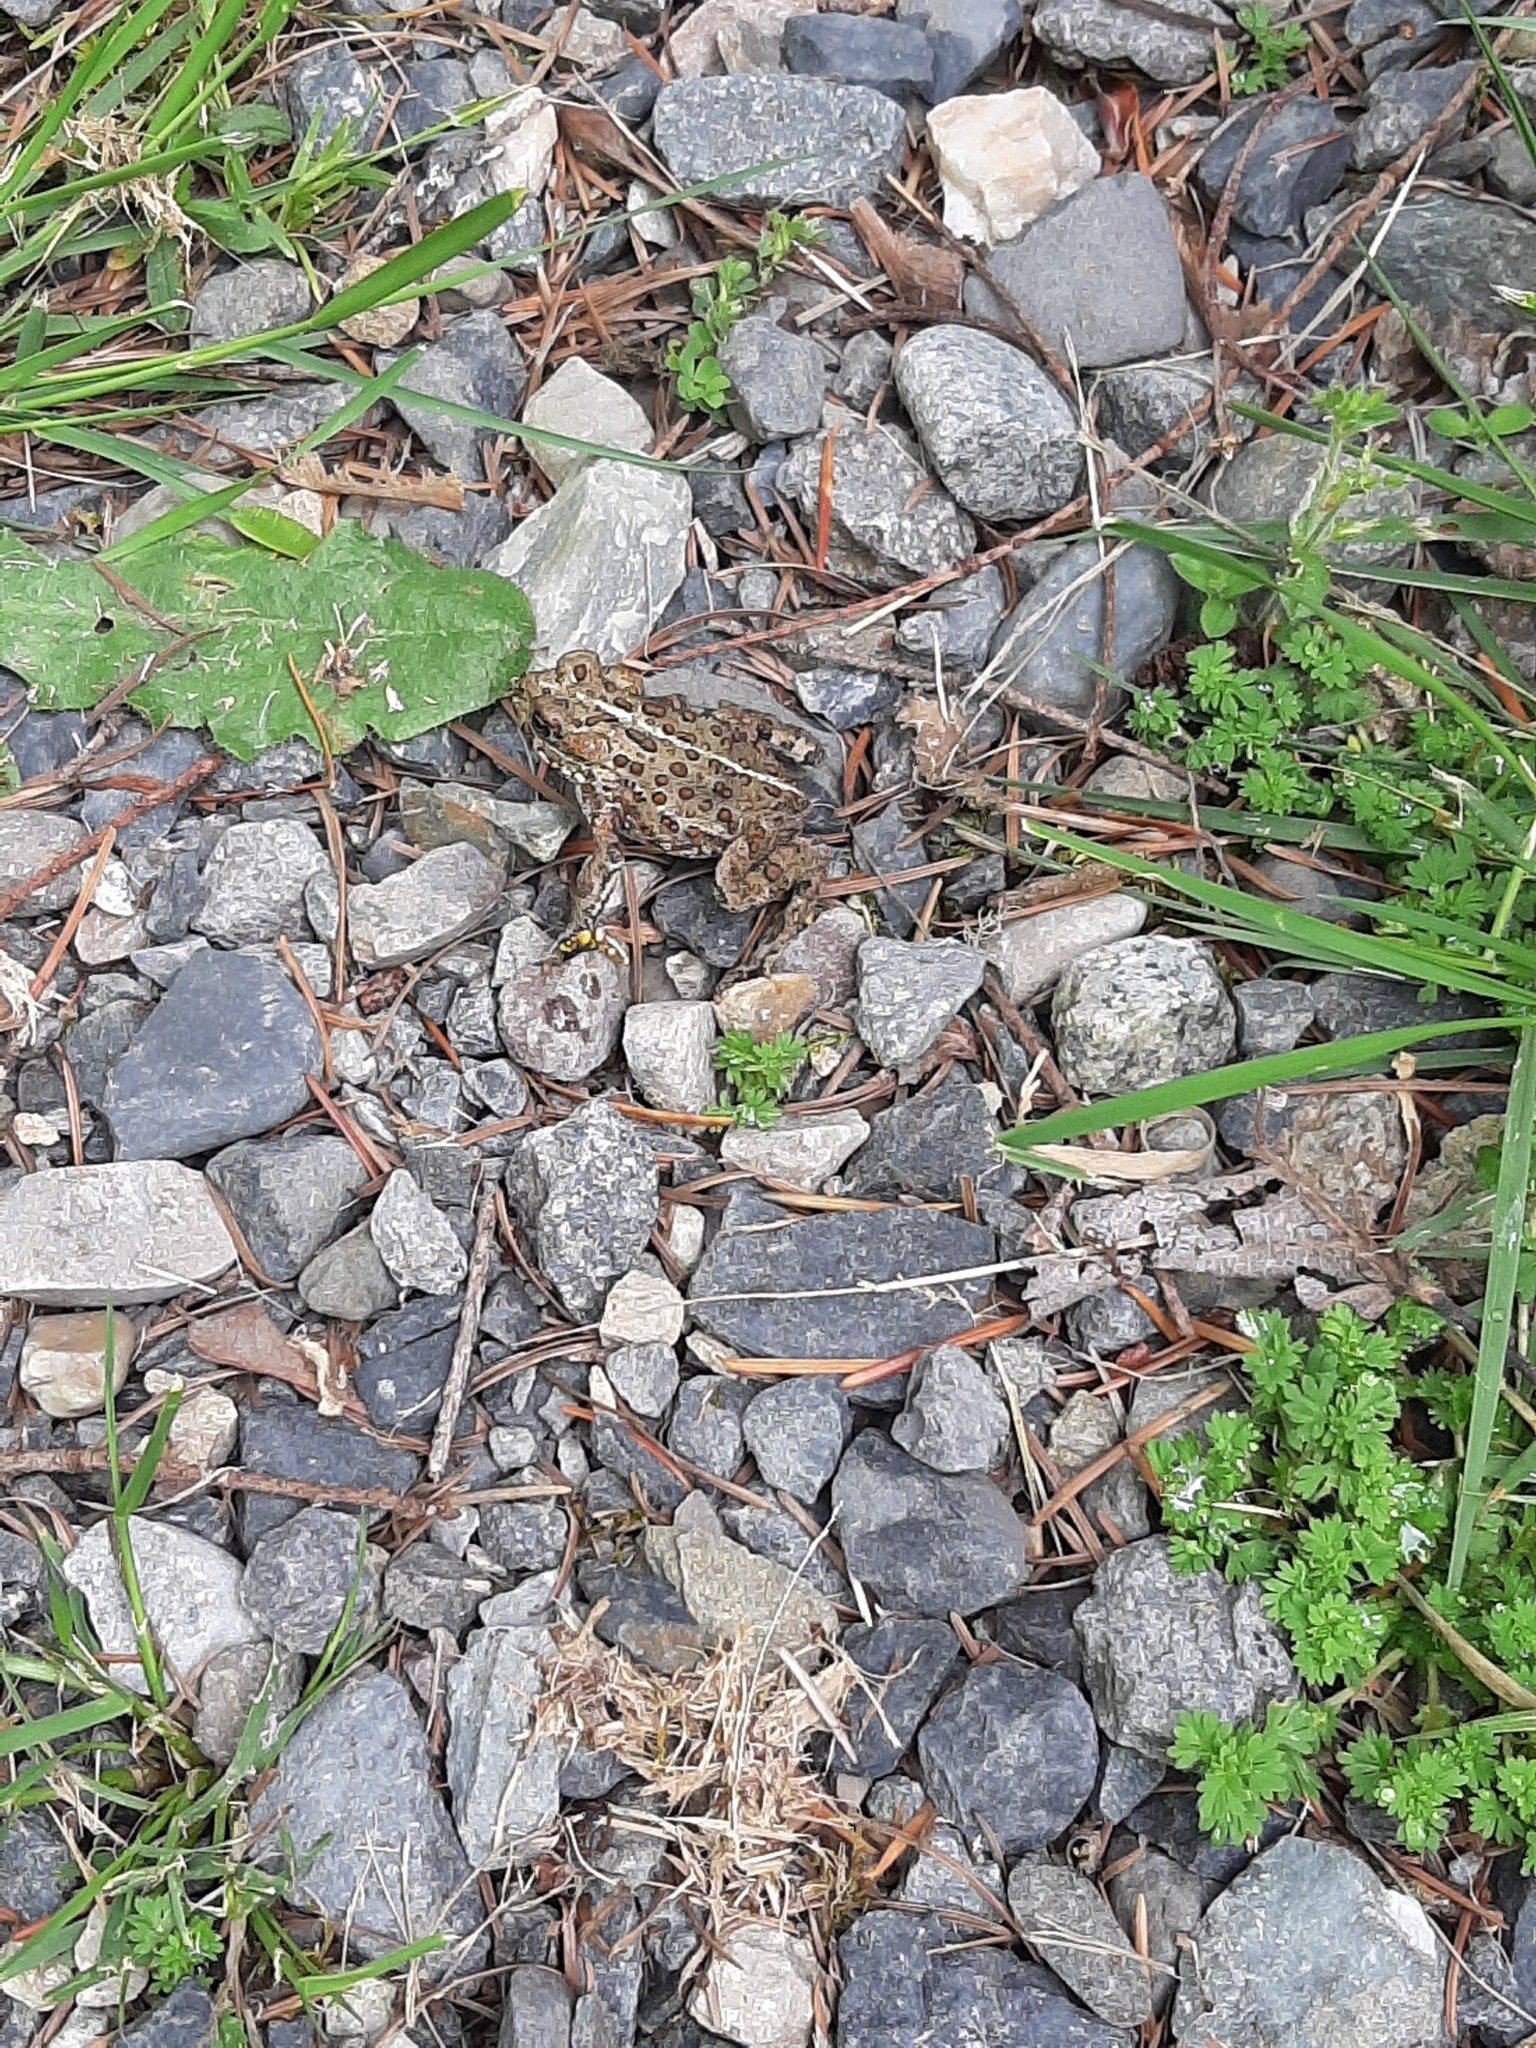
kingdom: Animalia
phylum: Chordata
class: Amphibia
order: Anura
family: Bufonidae
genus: Anaxyrus
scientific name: Anaxyrus boreas
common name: Western toad
